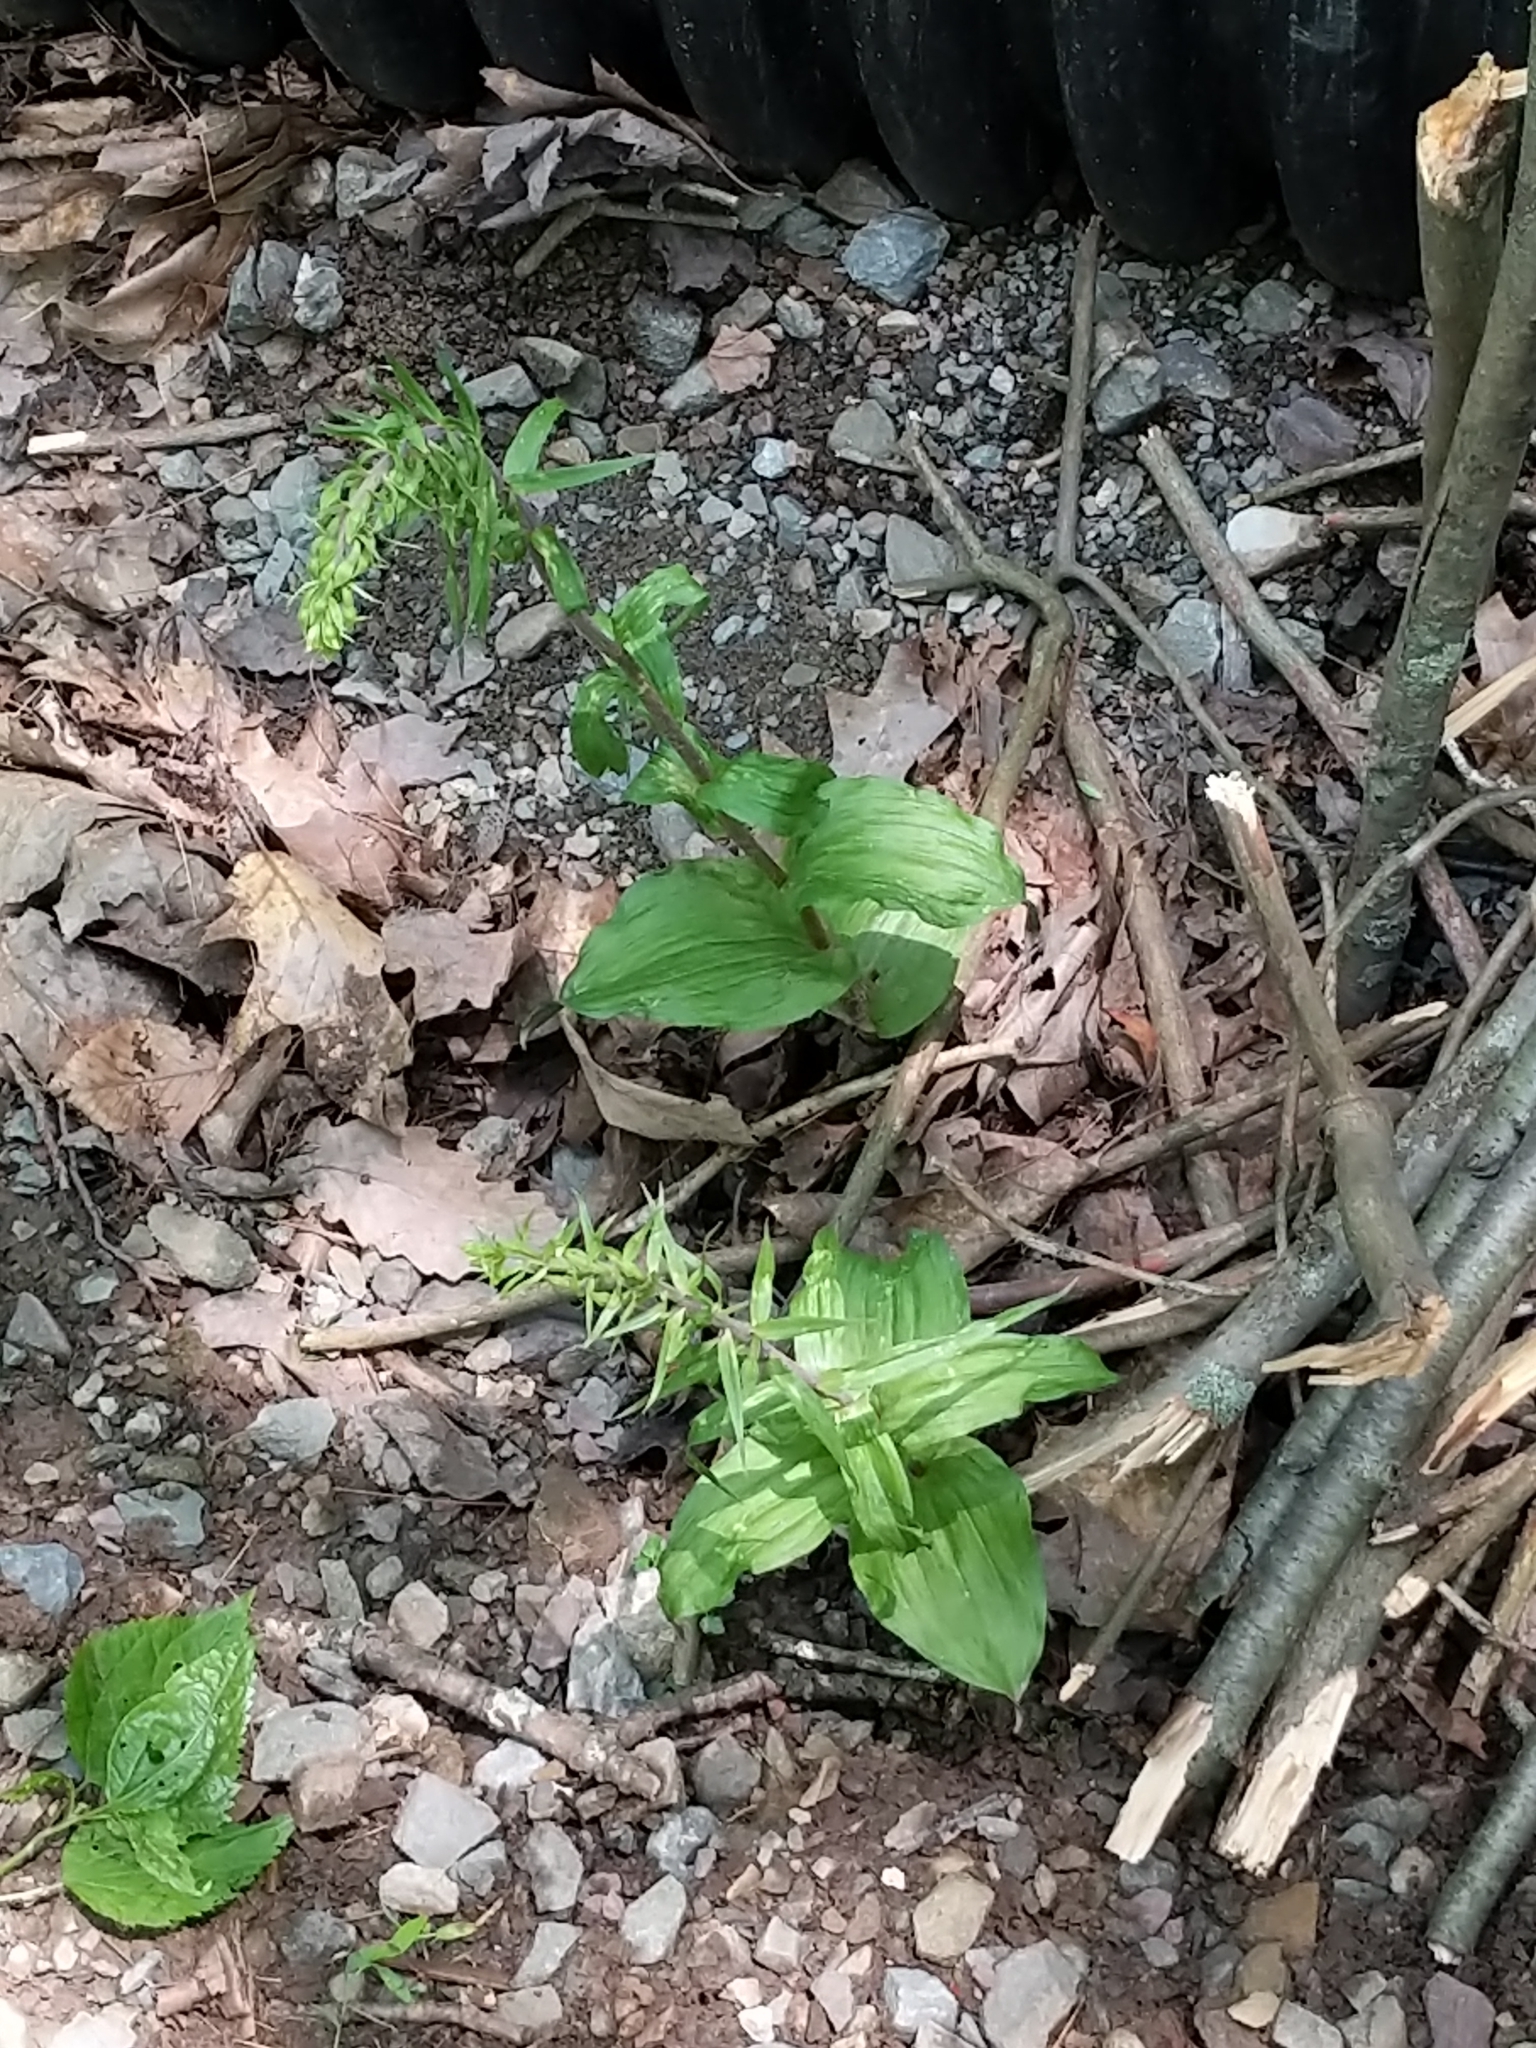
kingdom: Plantae
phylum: Tracheophyta
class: Liliopsida
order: Asparagales
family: Orchidaceae
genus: Epipactis
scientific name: Epipactis helleborine
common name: Broad-leaved helleborine
